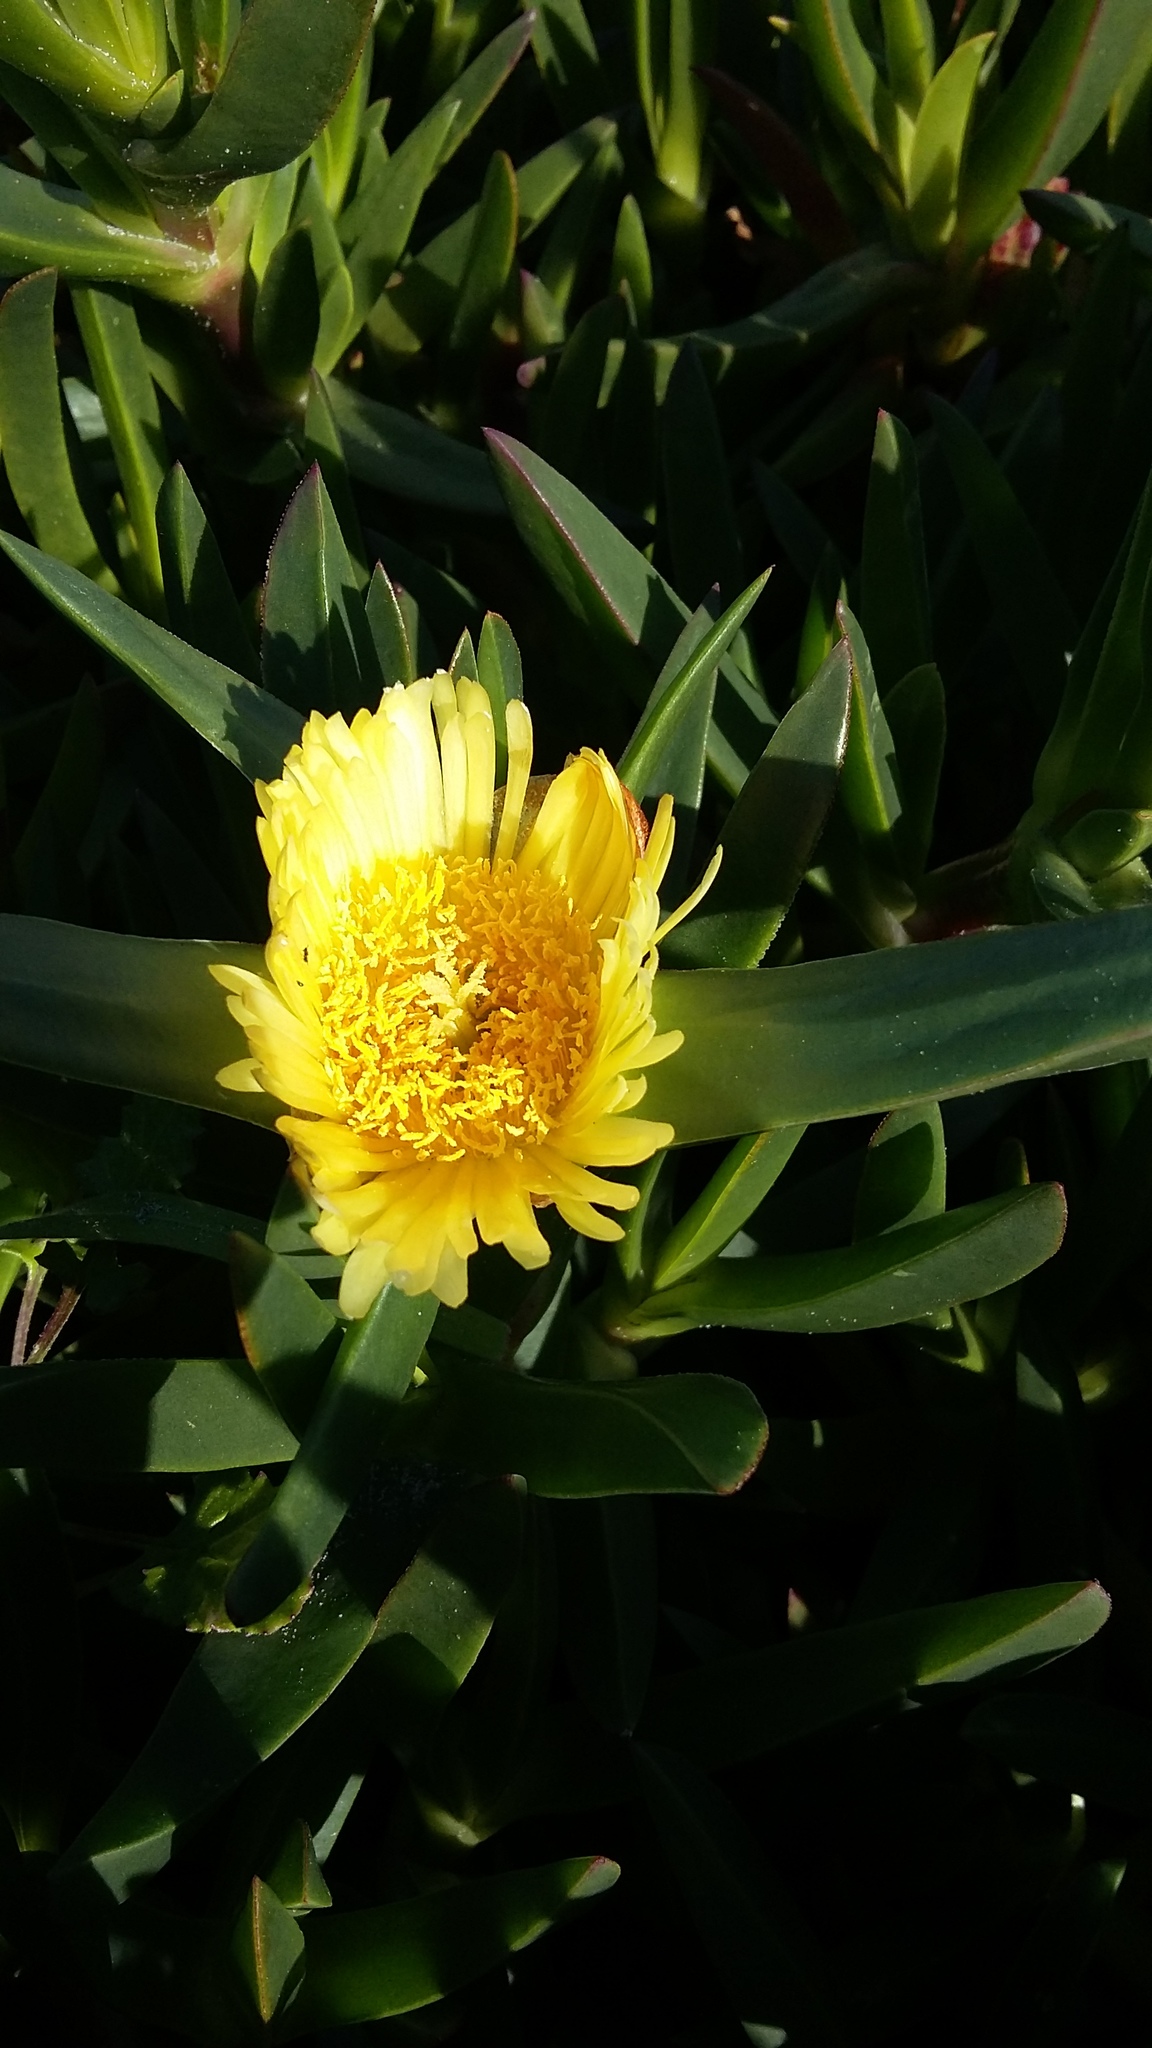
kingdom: Plantae
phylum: Tracheophyta
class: Magnoliopsida
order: Caryophyllales
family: Aizoaceae
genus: Carpobrotus
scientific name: Carpobrotus edulis
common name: Hottentot-fig
